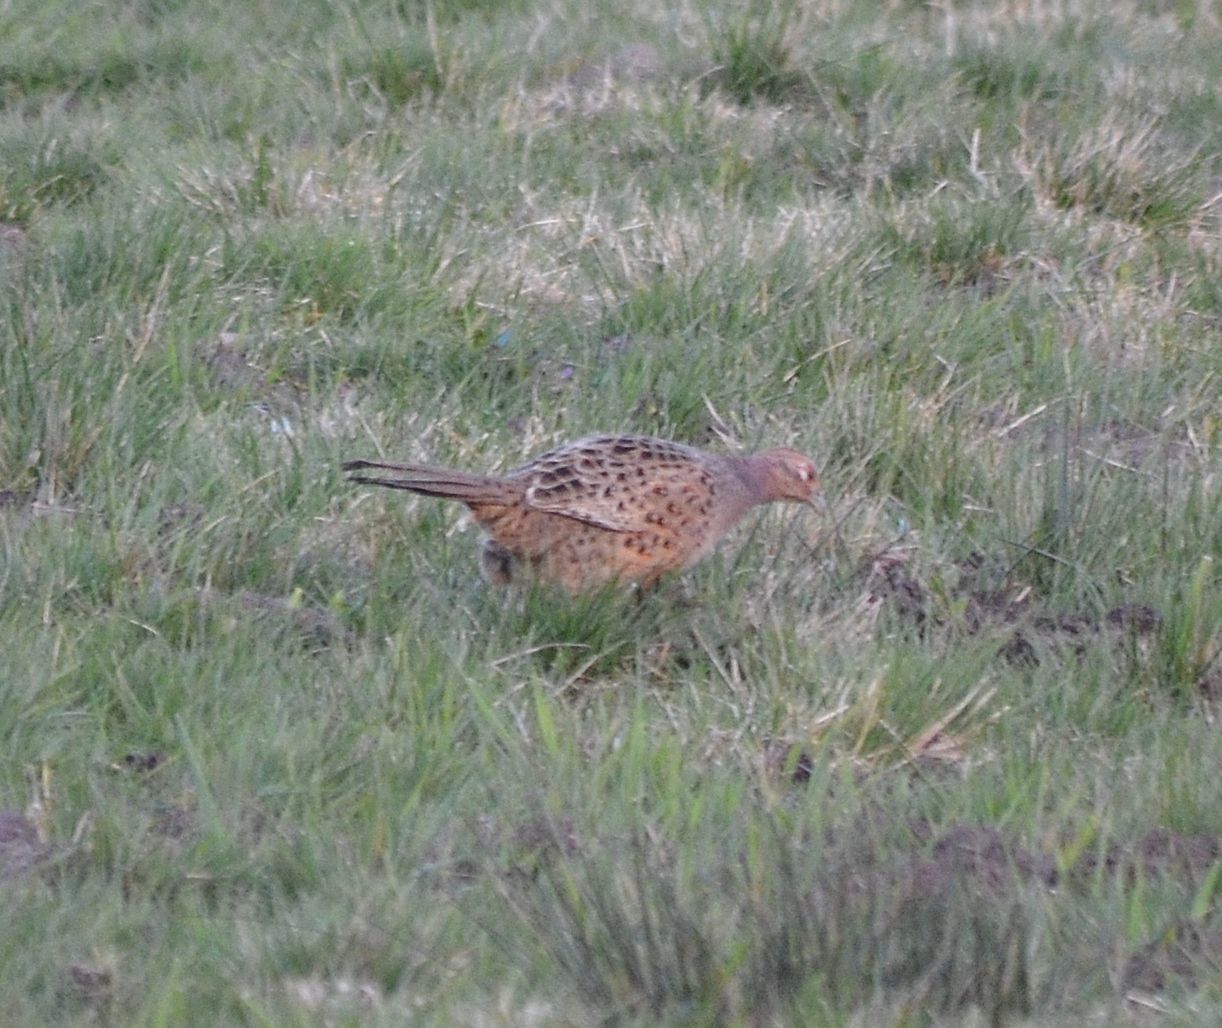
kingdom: Animalia
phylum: Chordata
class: Aves
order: Galliformes
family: Phasianidae
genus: Phasianus
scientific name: Phasianus colchicus
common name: Common pheasant
